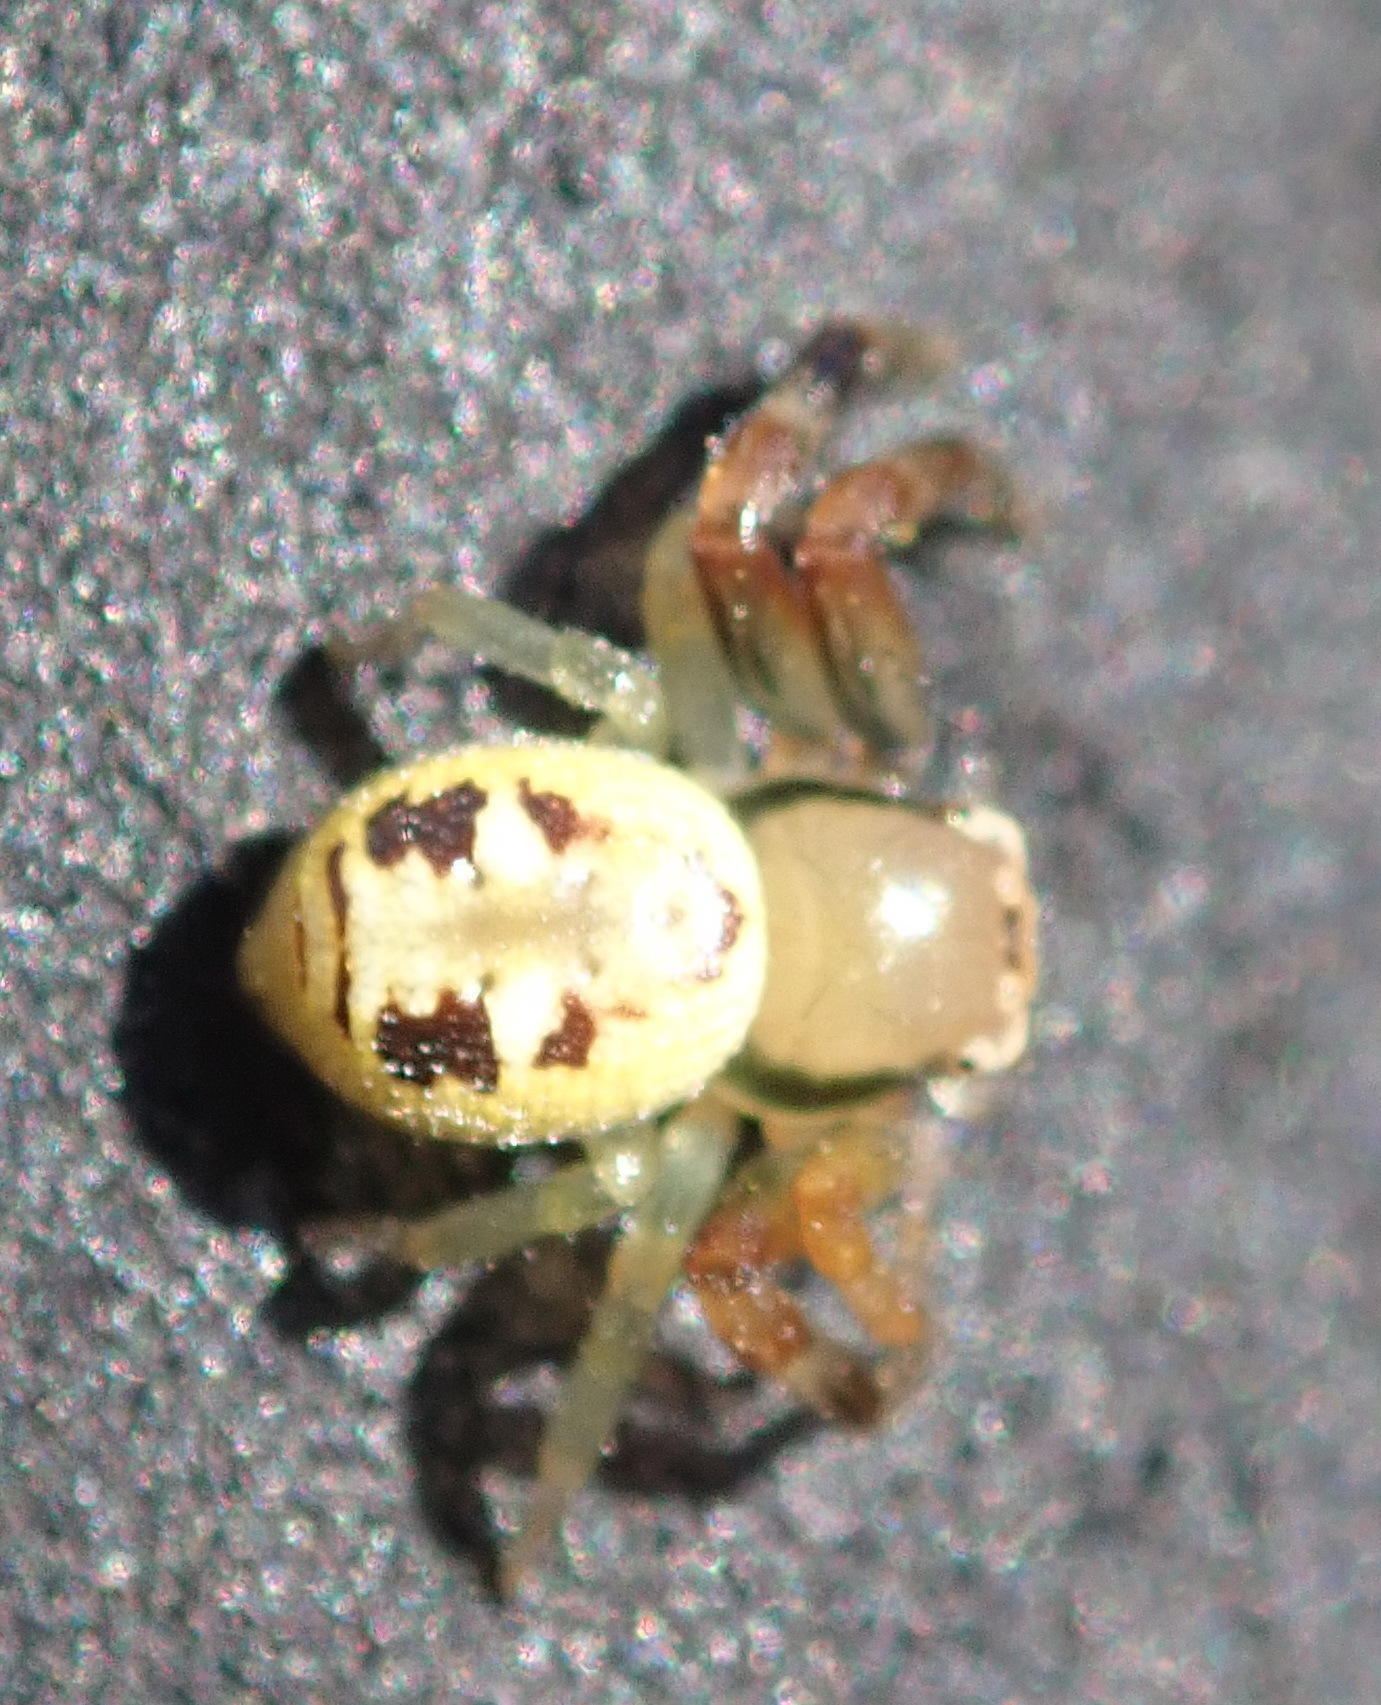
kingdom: Animalia
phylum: Arthropoda
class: Arachnida
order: Araneae
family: Thomisidae
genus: Synema
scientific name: Synema marlothi
